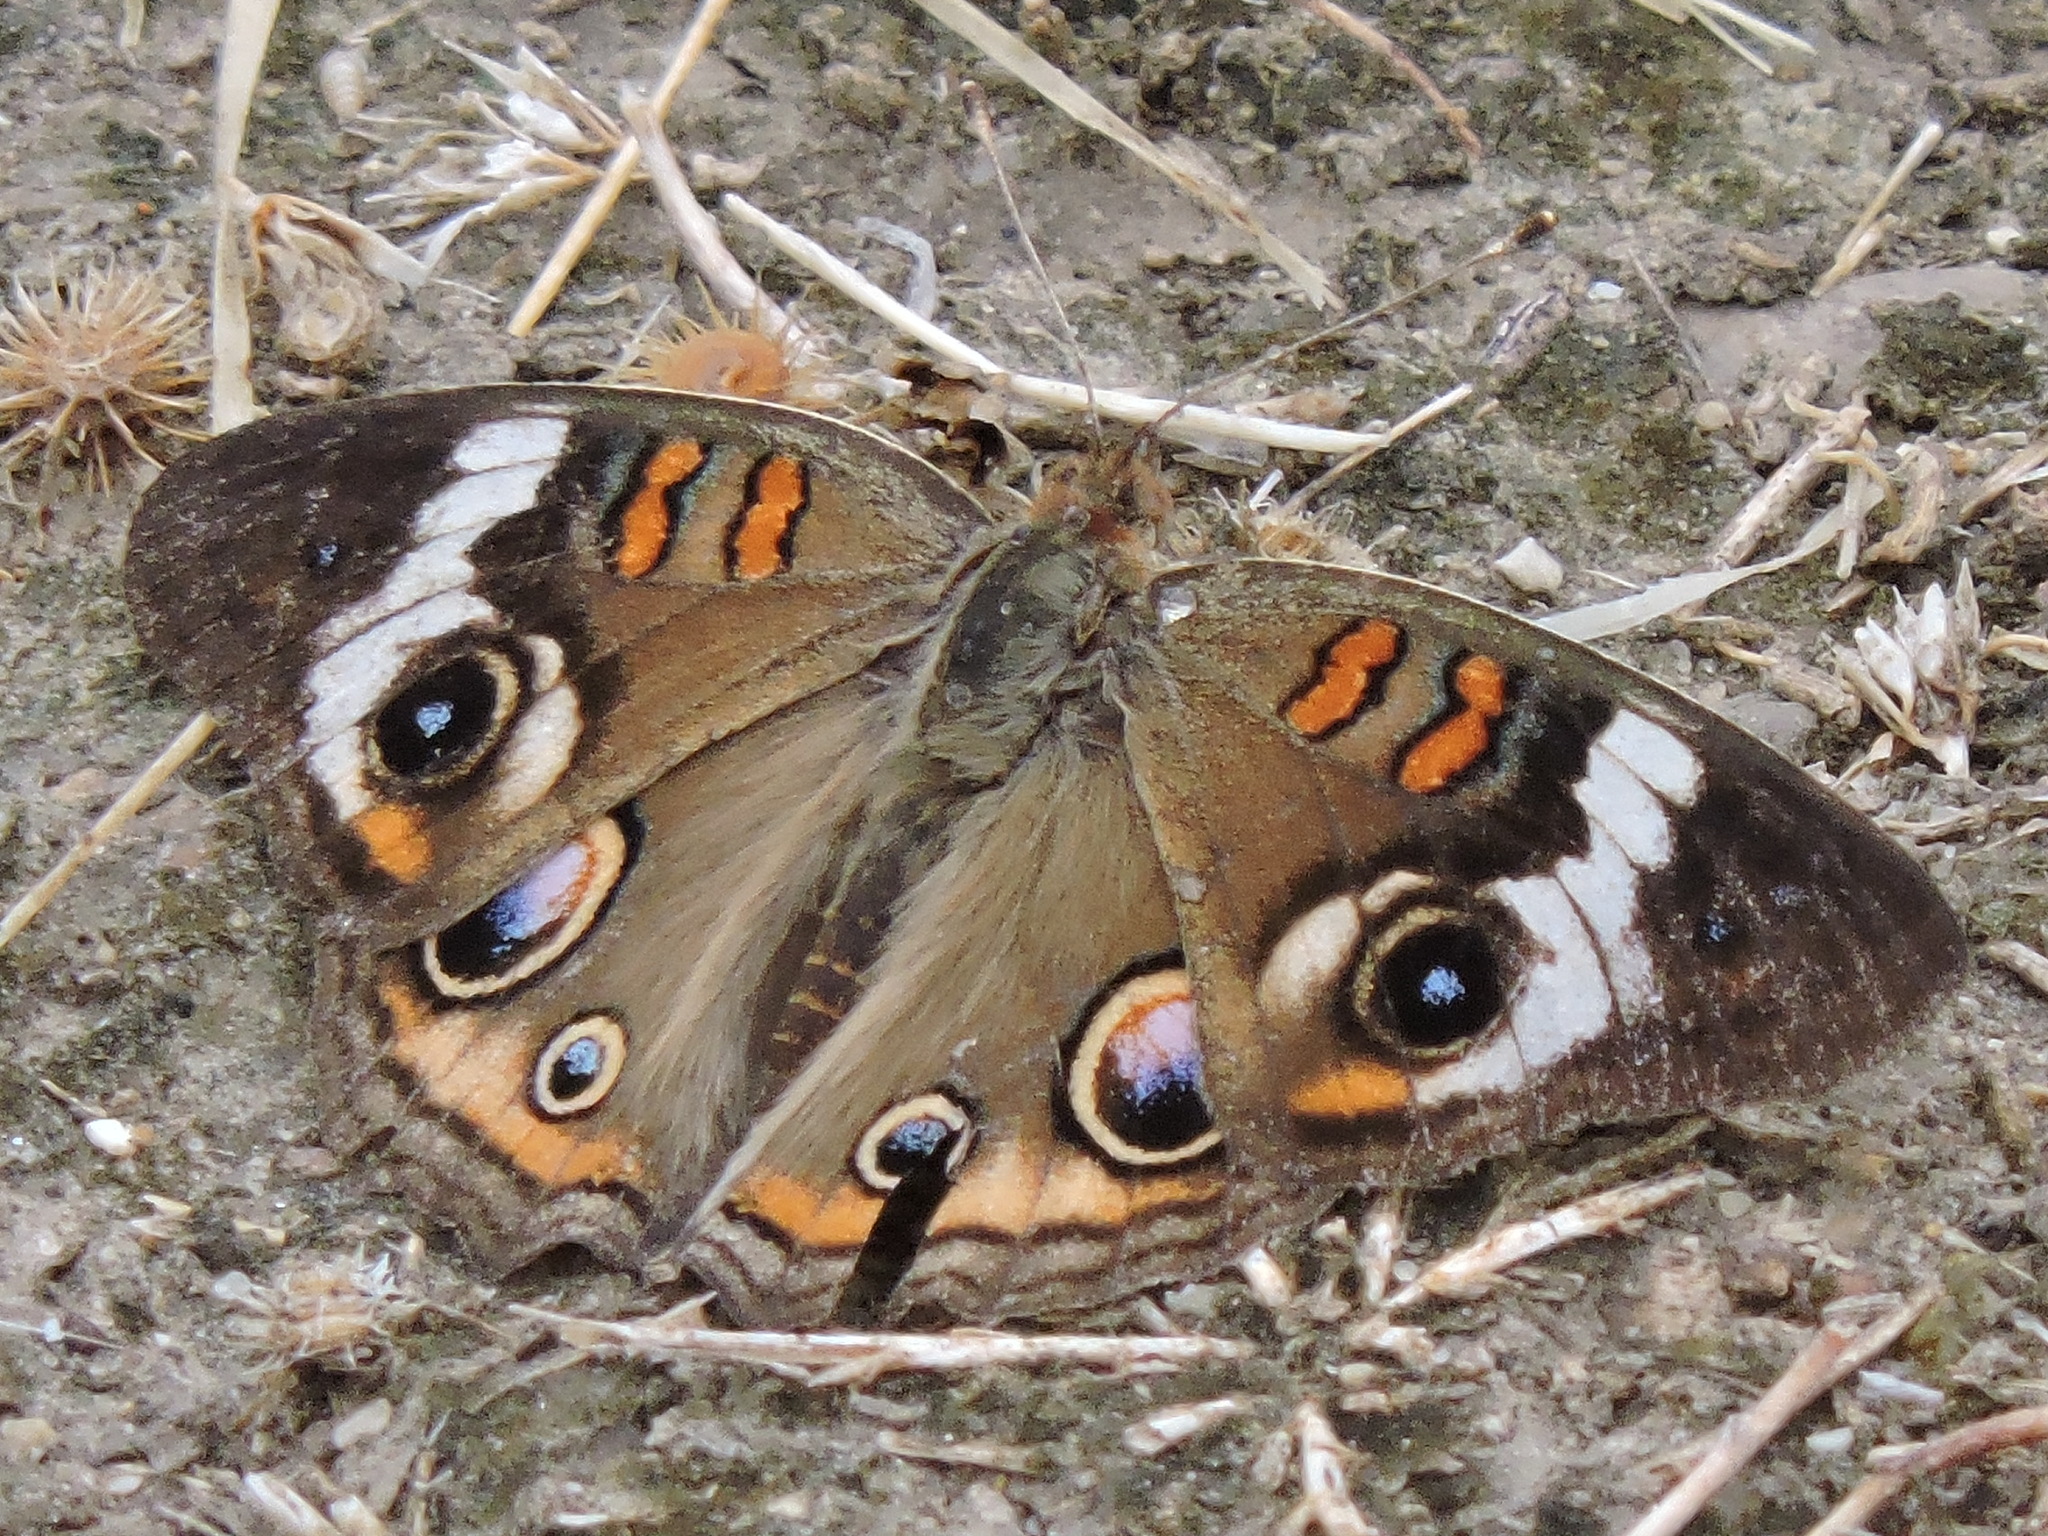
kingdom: Animalia
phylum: Arthropoda
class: Insecta
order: Lepidoptera
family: Nymphalidae
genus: Junonia
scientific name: Junonia coenia
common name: Common buckeye
